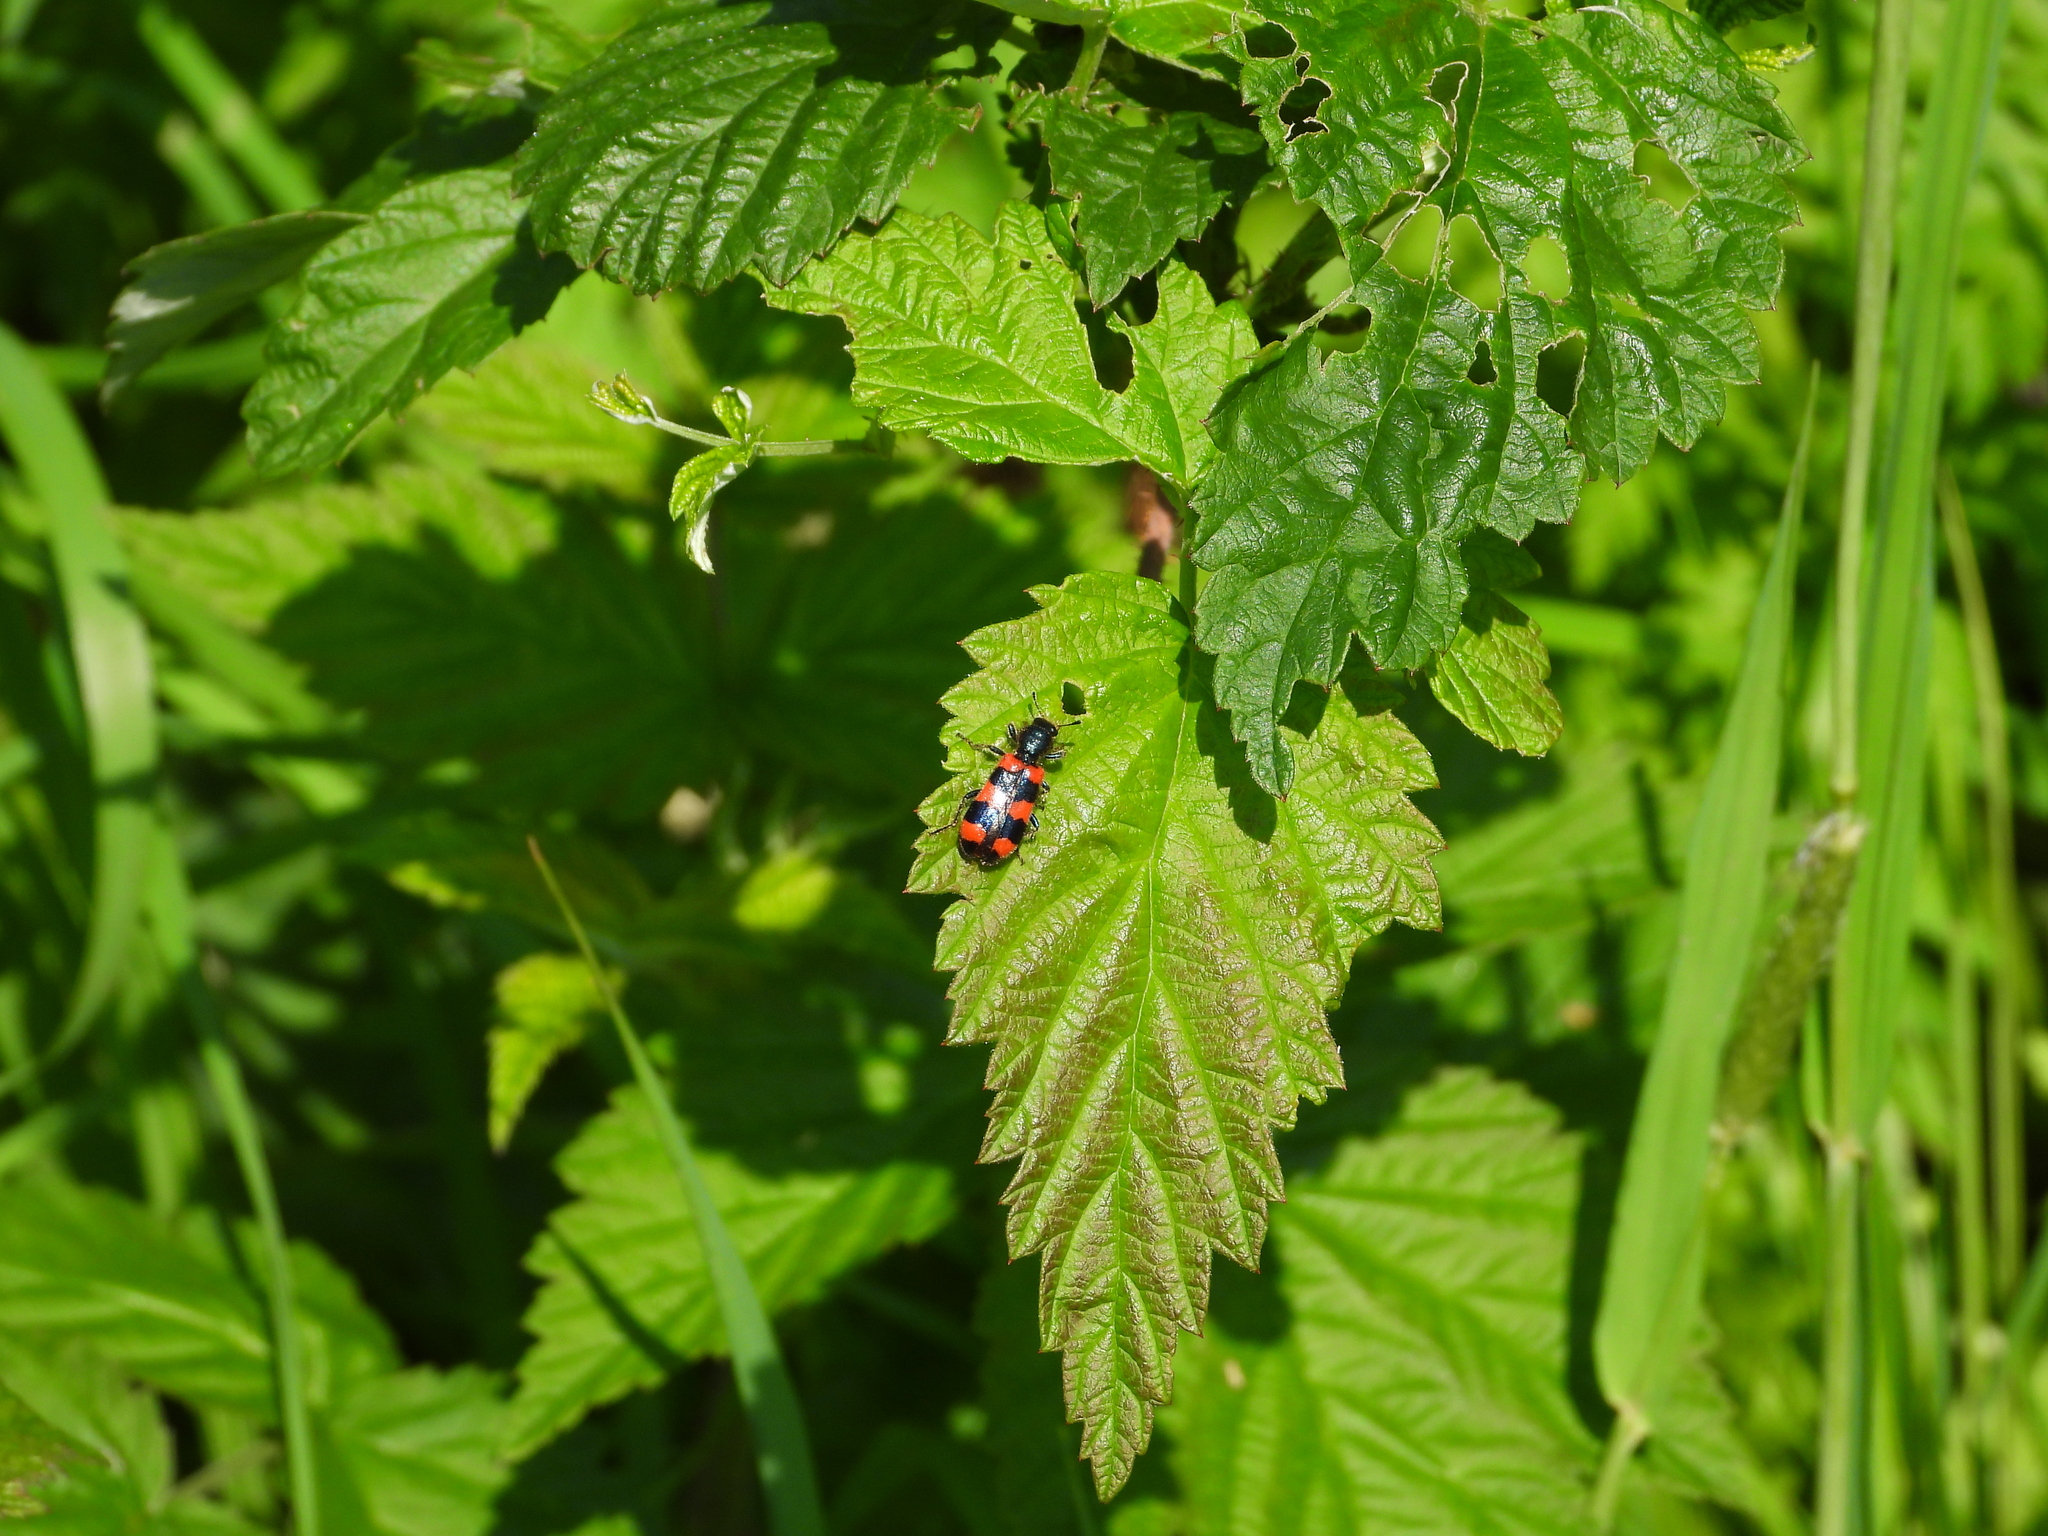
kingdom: Animalia
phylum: Arthropoda
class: Insecta
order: Coleoptera
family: Cleridae
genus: Trichodes
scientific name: Trichodes apiarius
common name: Bee-eating beetle
